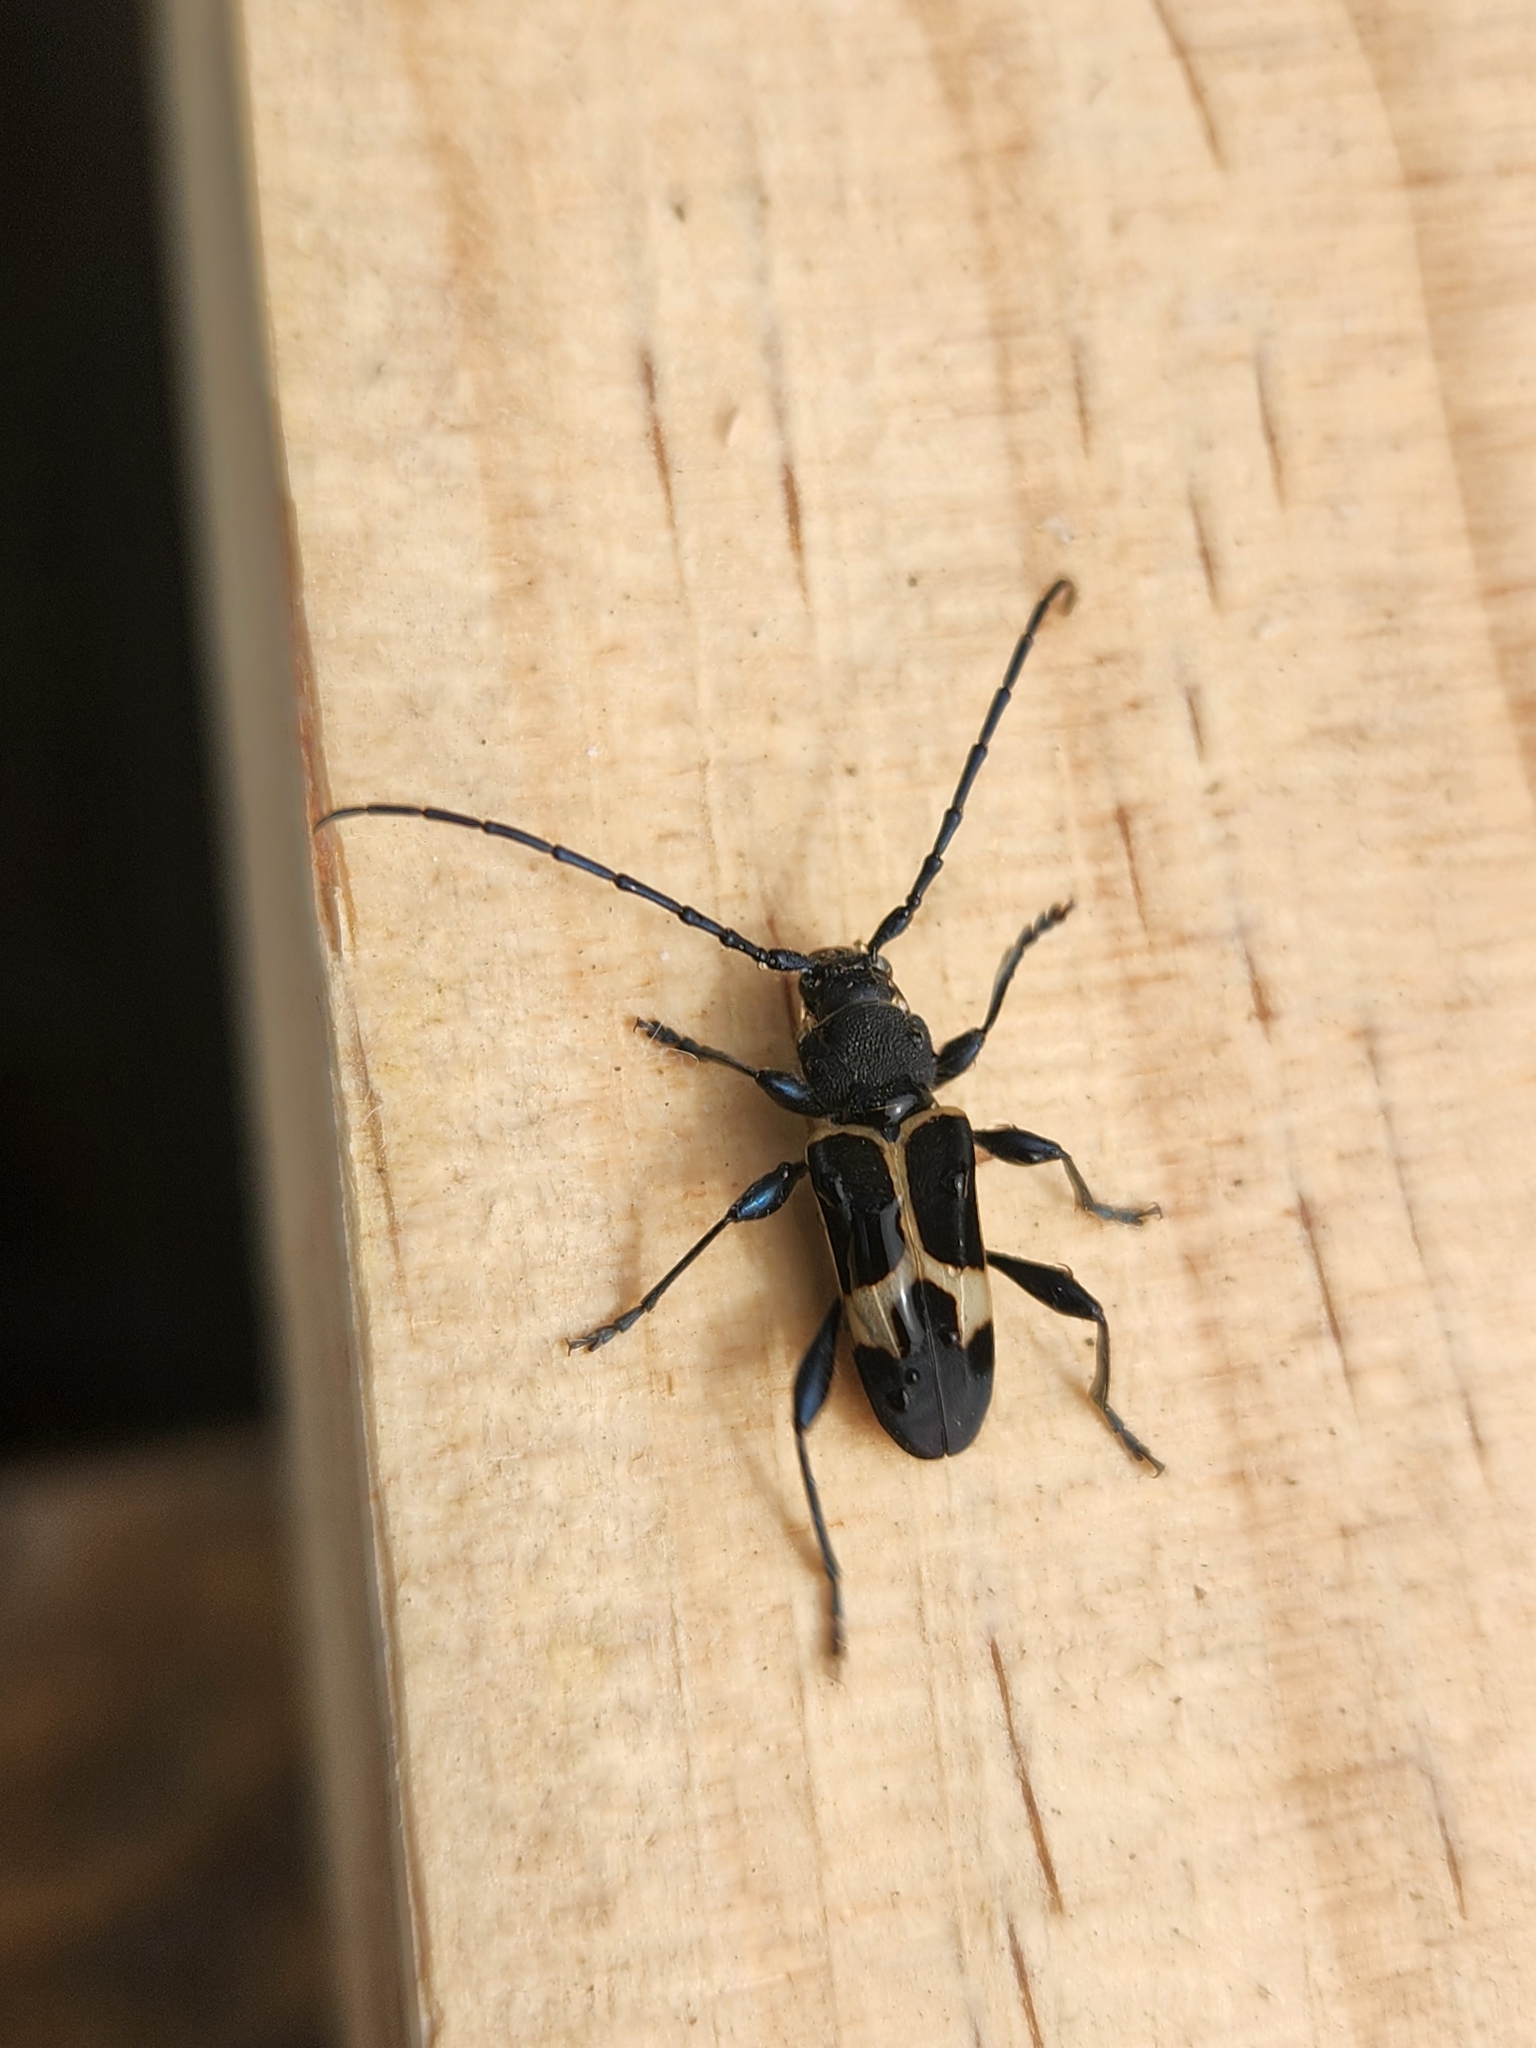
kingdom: Animalia
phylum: Arthropoda
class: Insecta
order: Coleoptera
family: Cerambycidae
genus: Calydon
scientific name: Calydon submetallicum
